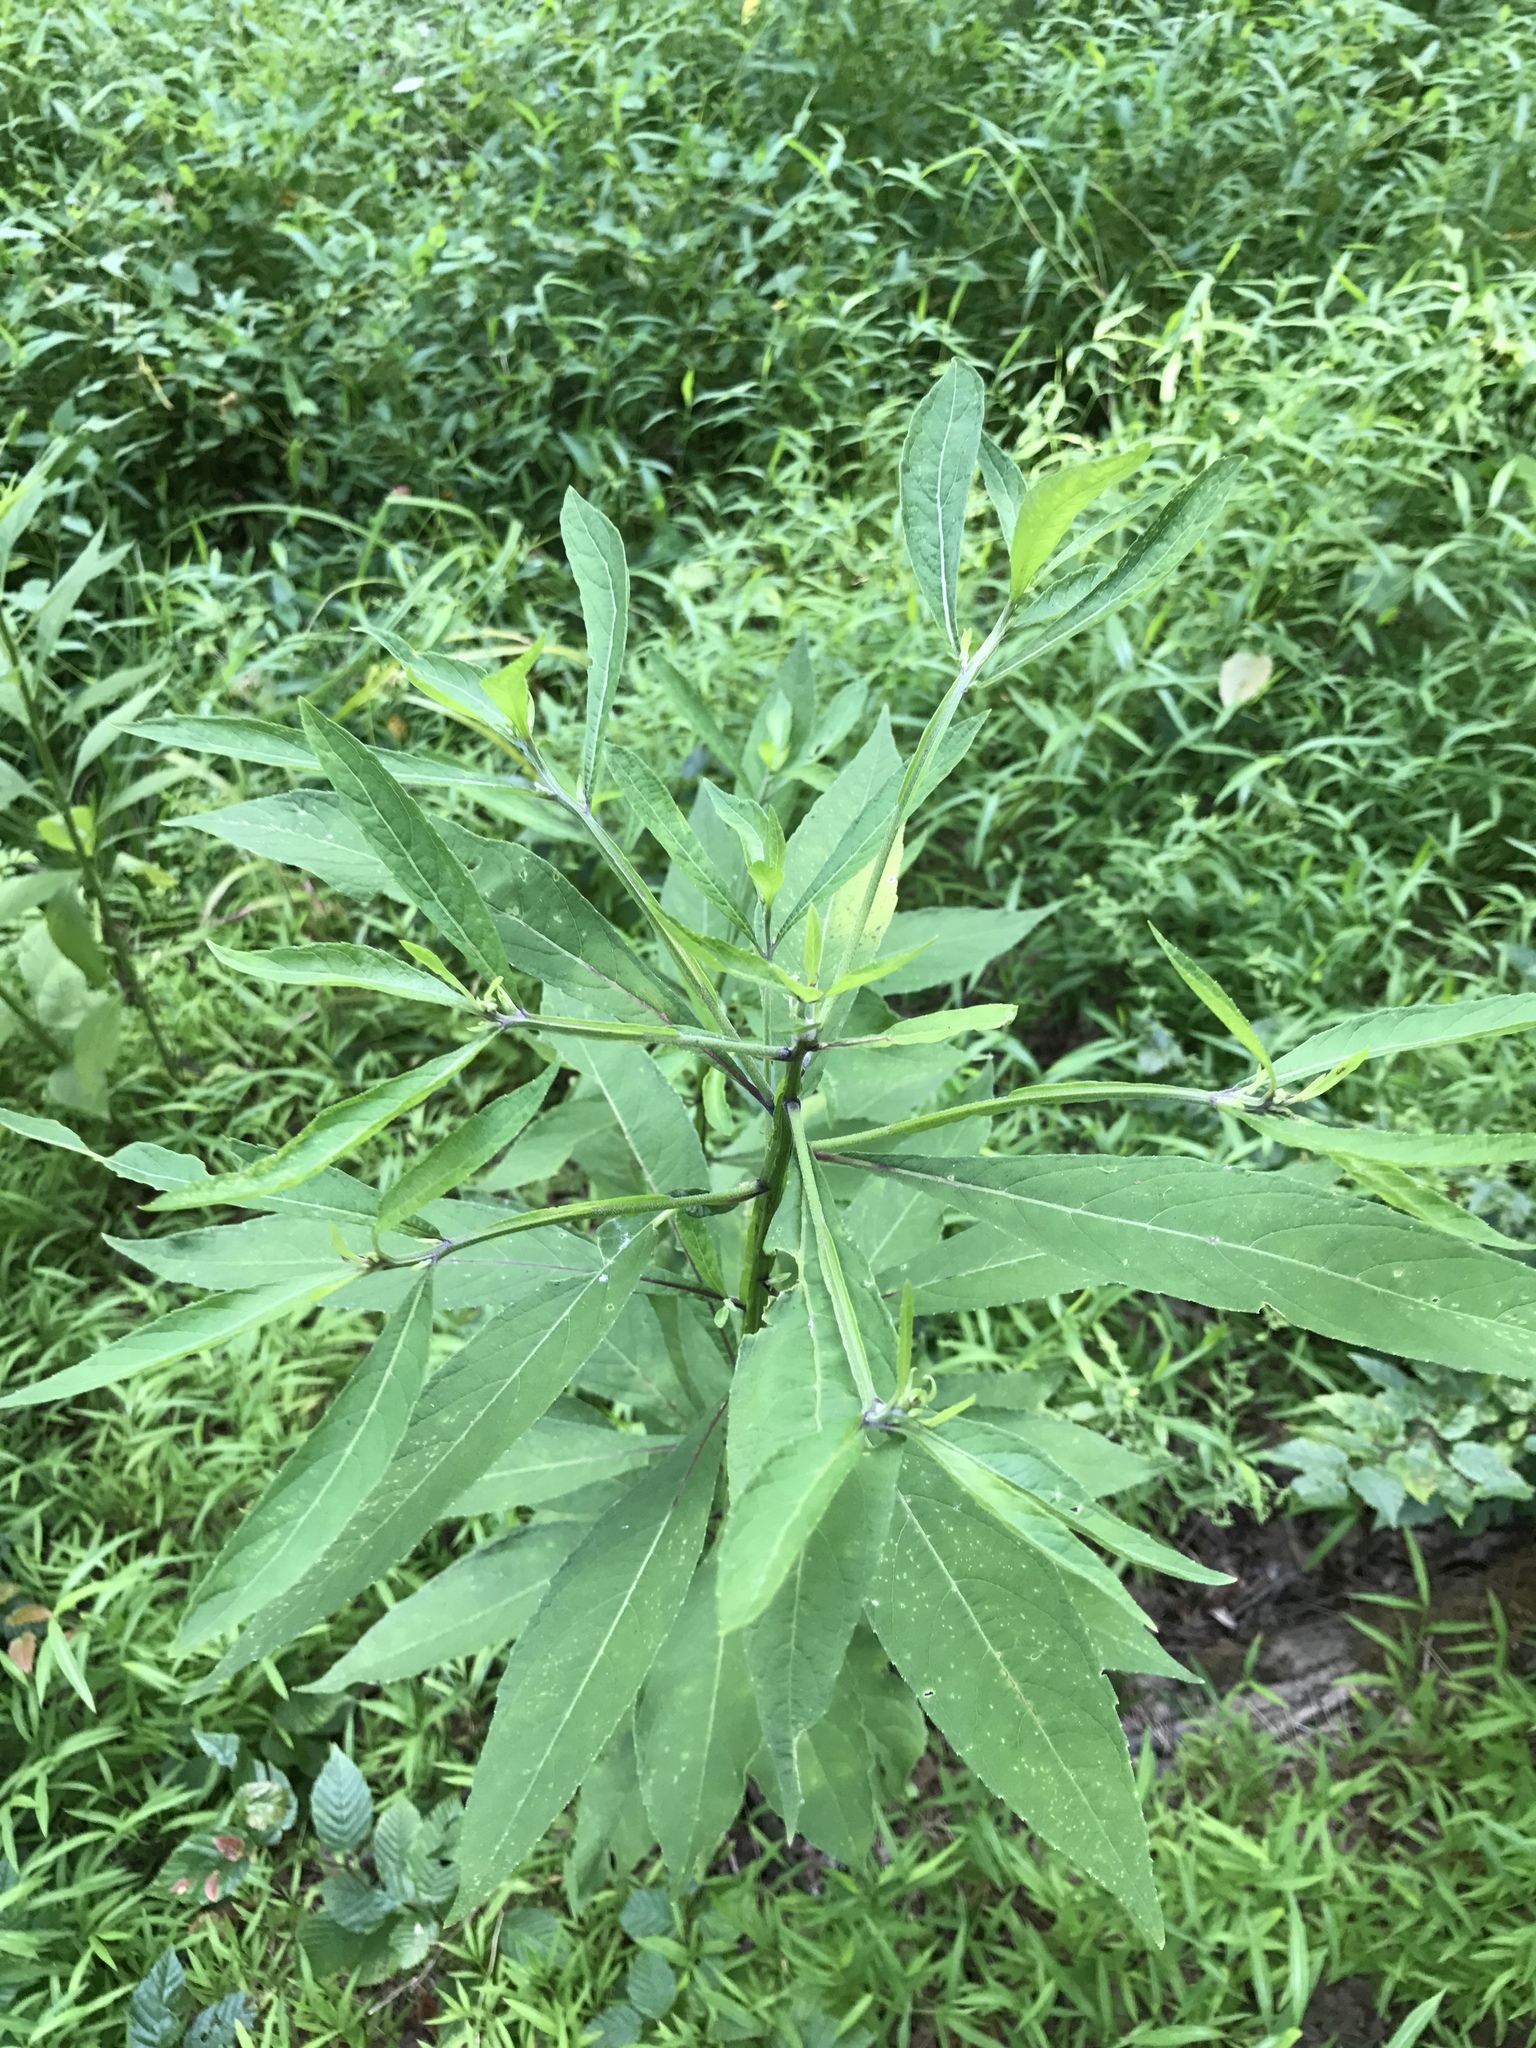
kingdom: Plantae
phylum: Tracheophyta
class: Magnoliopsida
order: Asterales
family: Asteraceae
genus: Verbesina
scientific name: Verbesina alternifolia
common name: Wingstem
